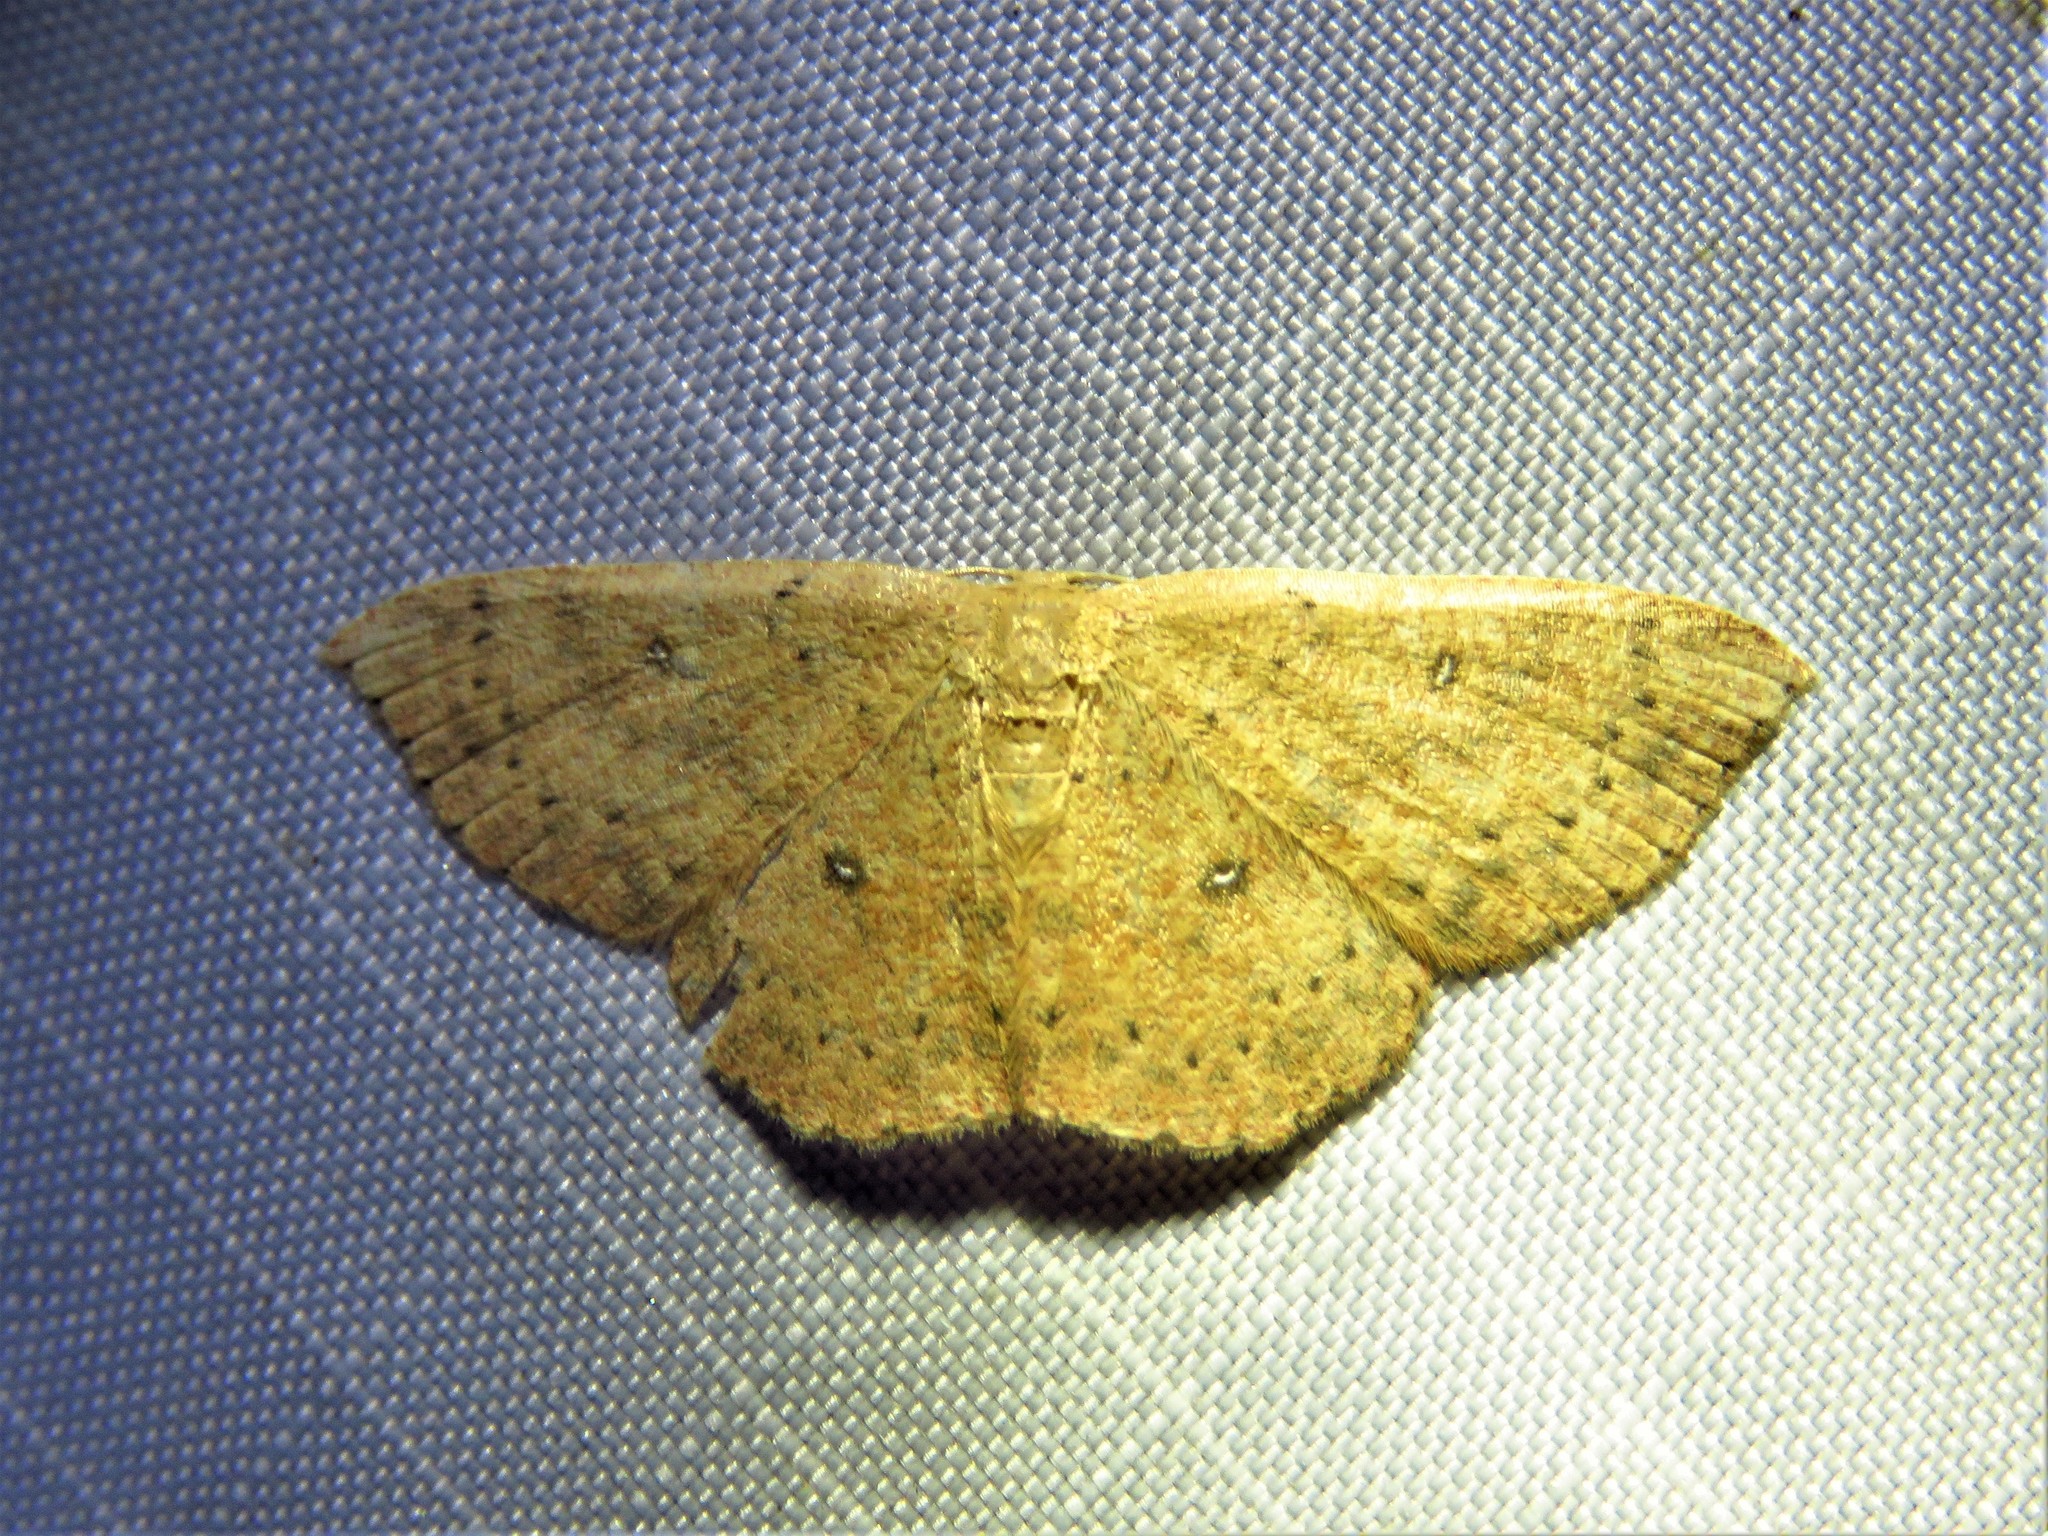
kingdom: Animalia
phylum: Arthropoda
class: Insecta
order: Lepidoptera
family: Geometridae
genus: Cyclophora
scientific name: Cyclophora packardi
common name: Packard's wave
